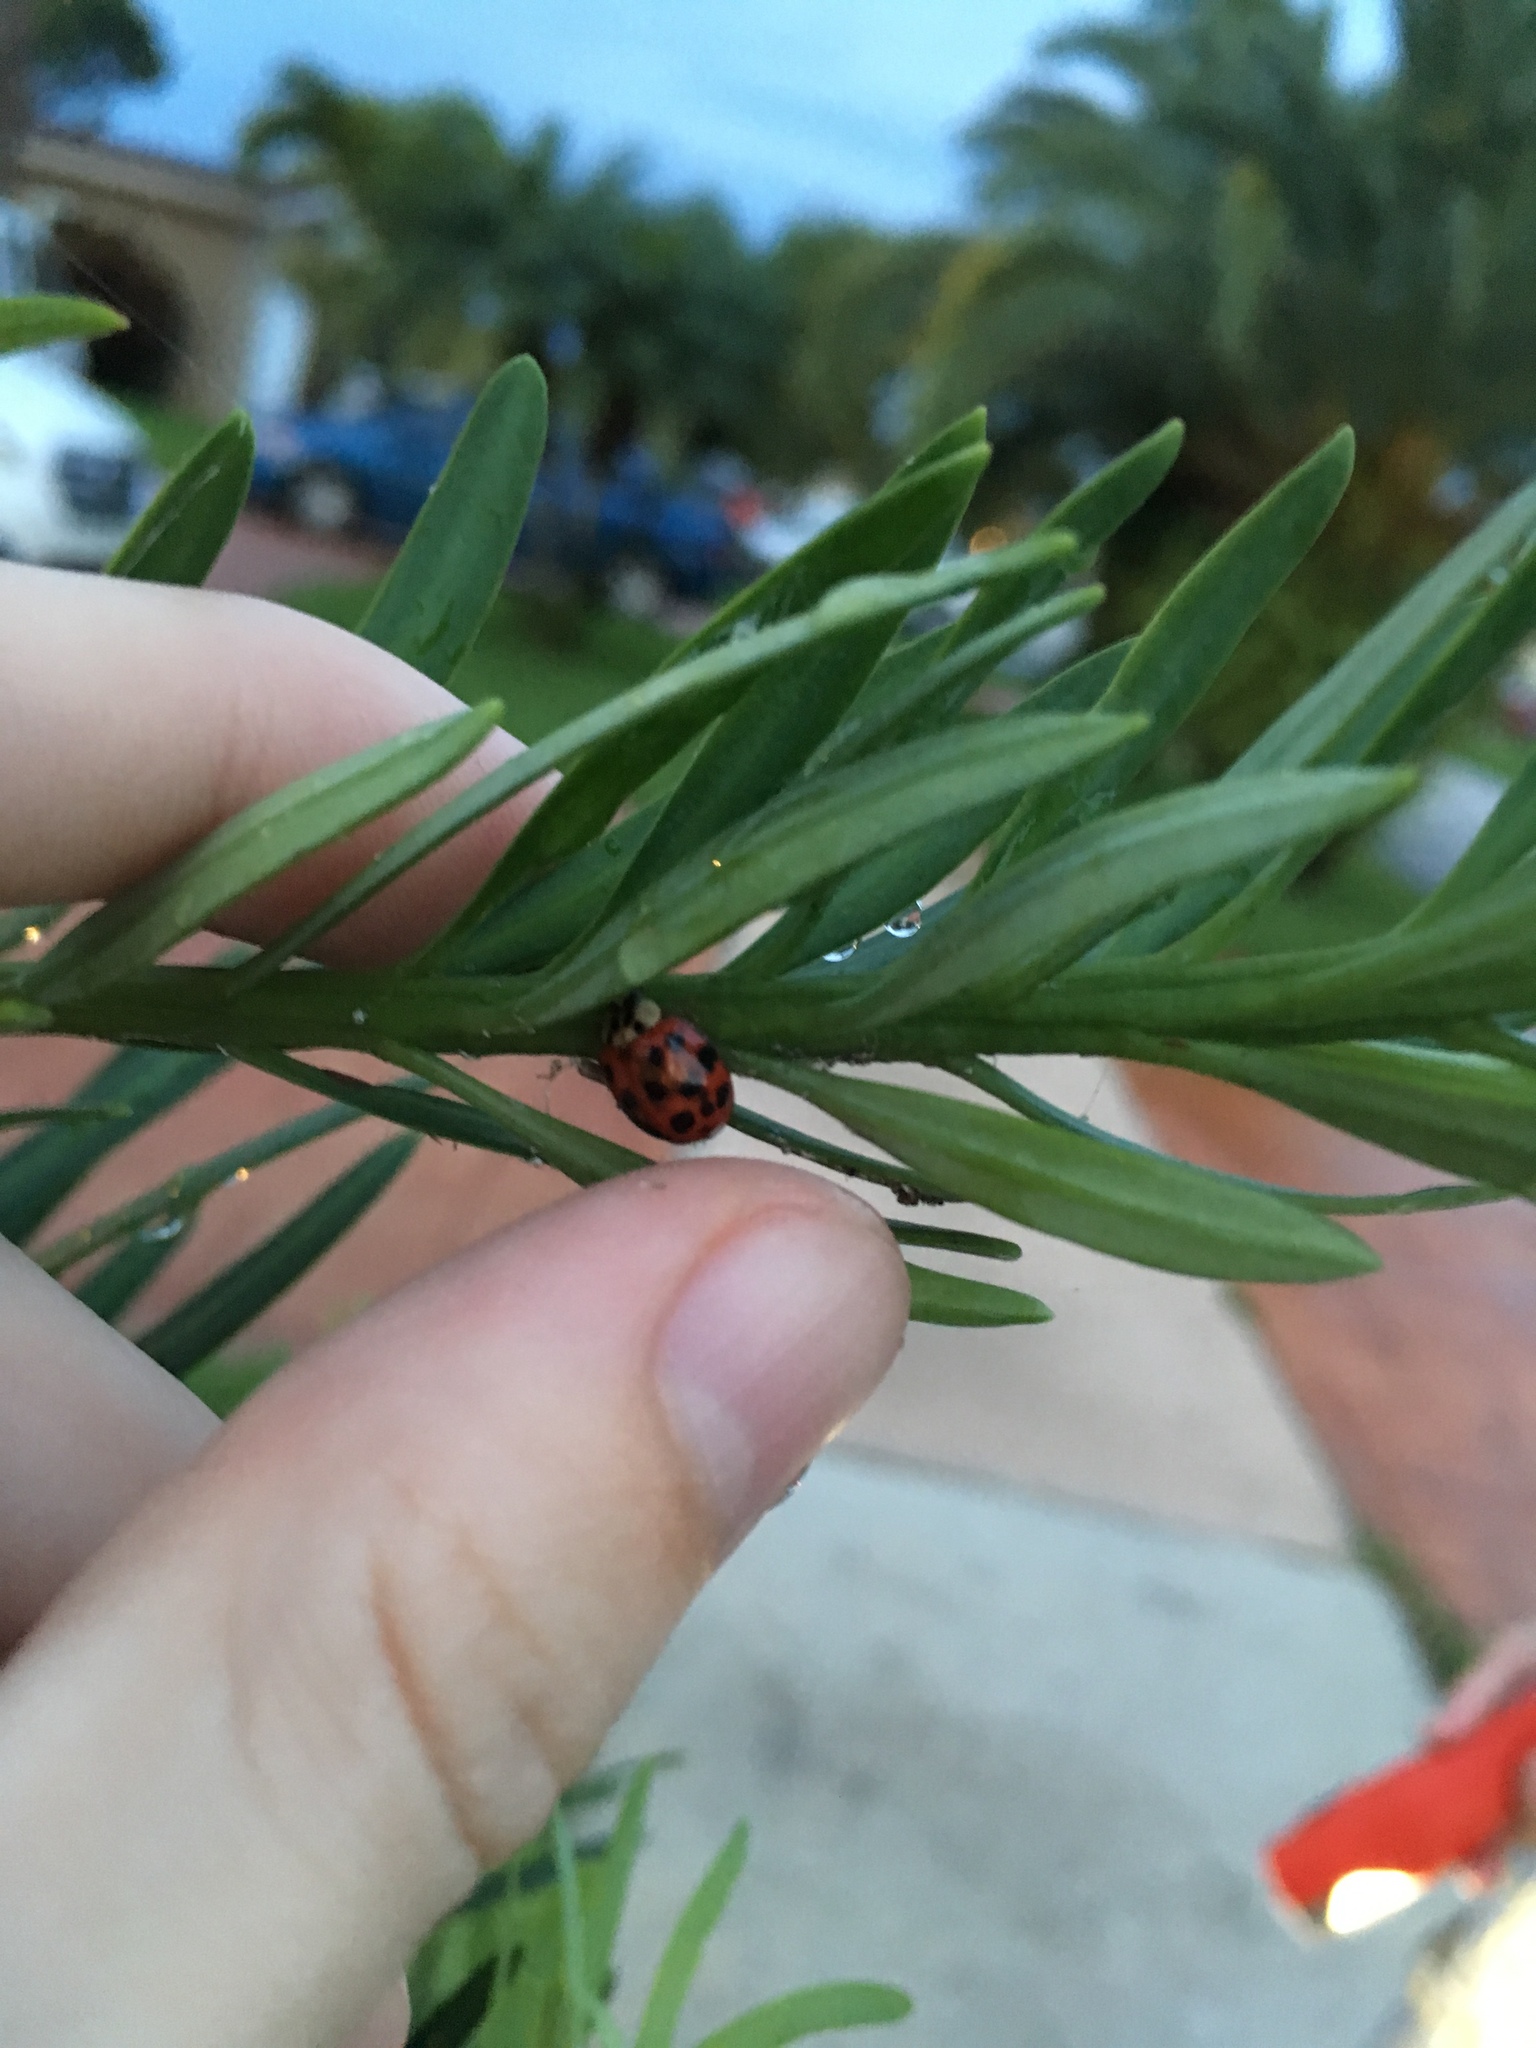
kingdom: Animalia
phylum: Arthropoda
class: Insecta
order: Coleoptera
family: Coccinellidae
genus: Harmonia
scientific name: Harmonia axyridis
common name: Harlequin ladybird
